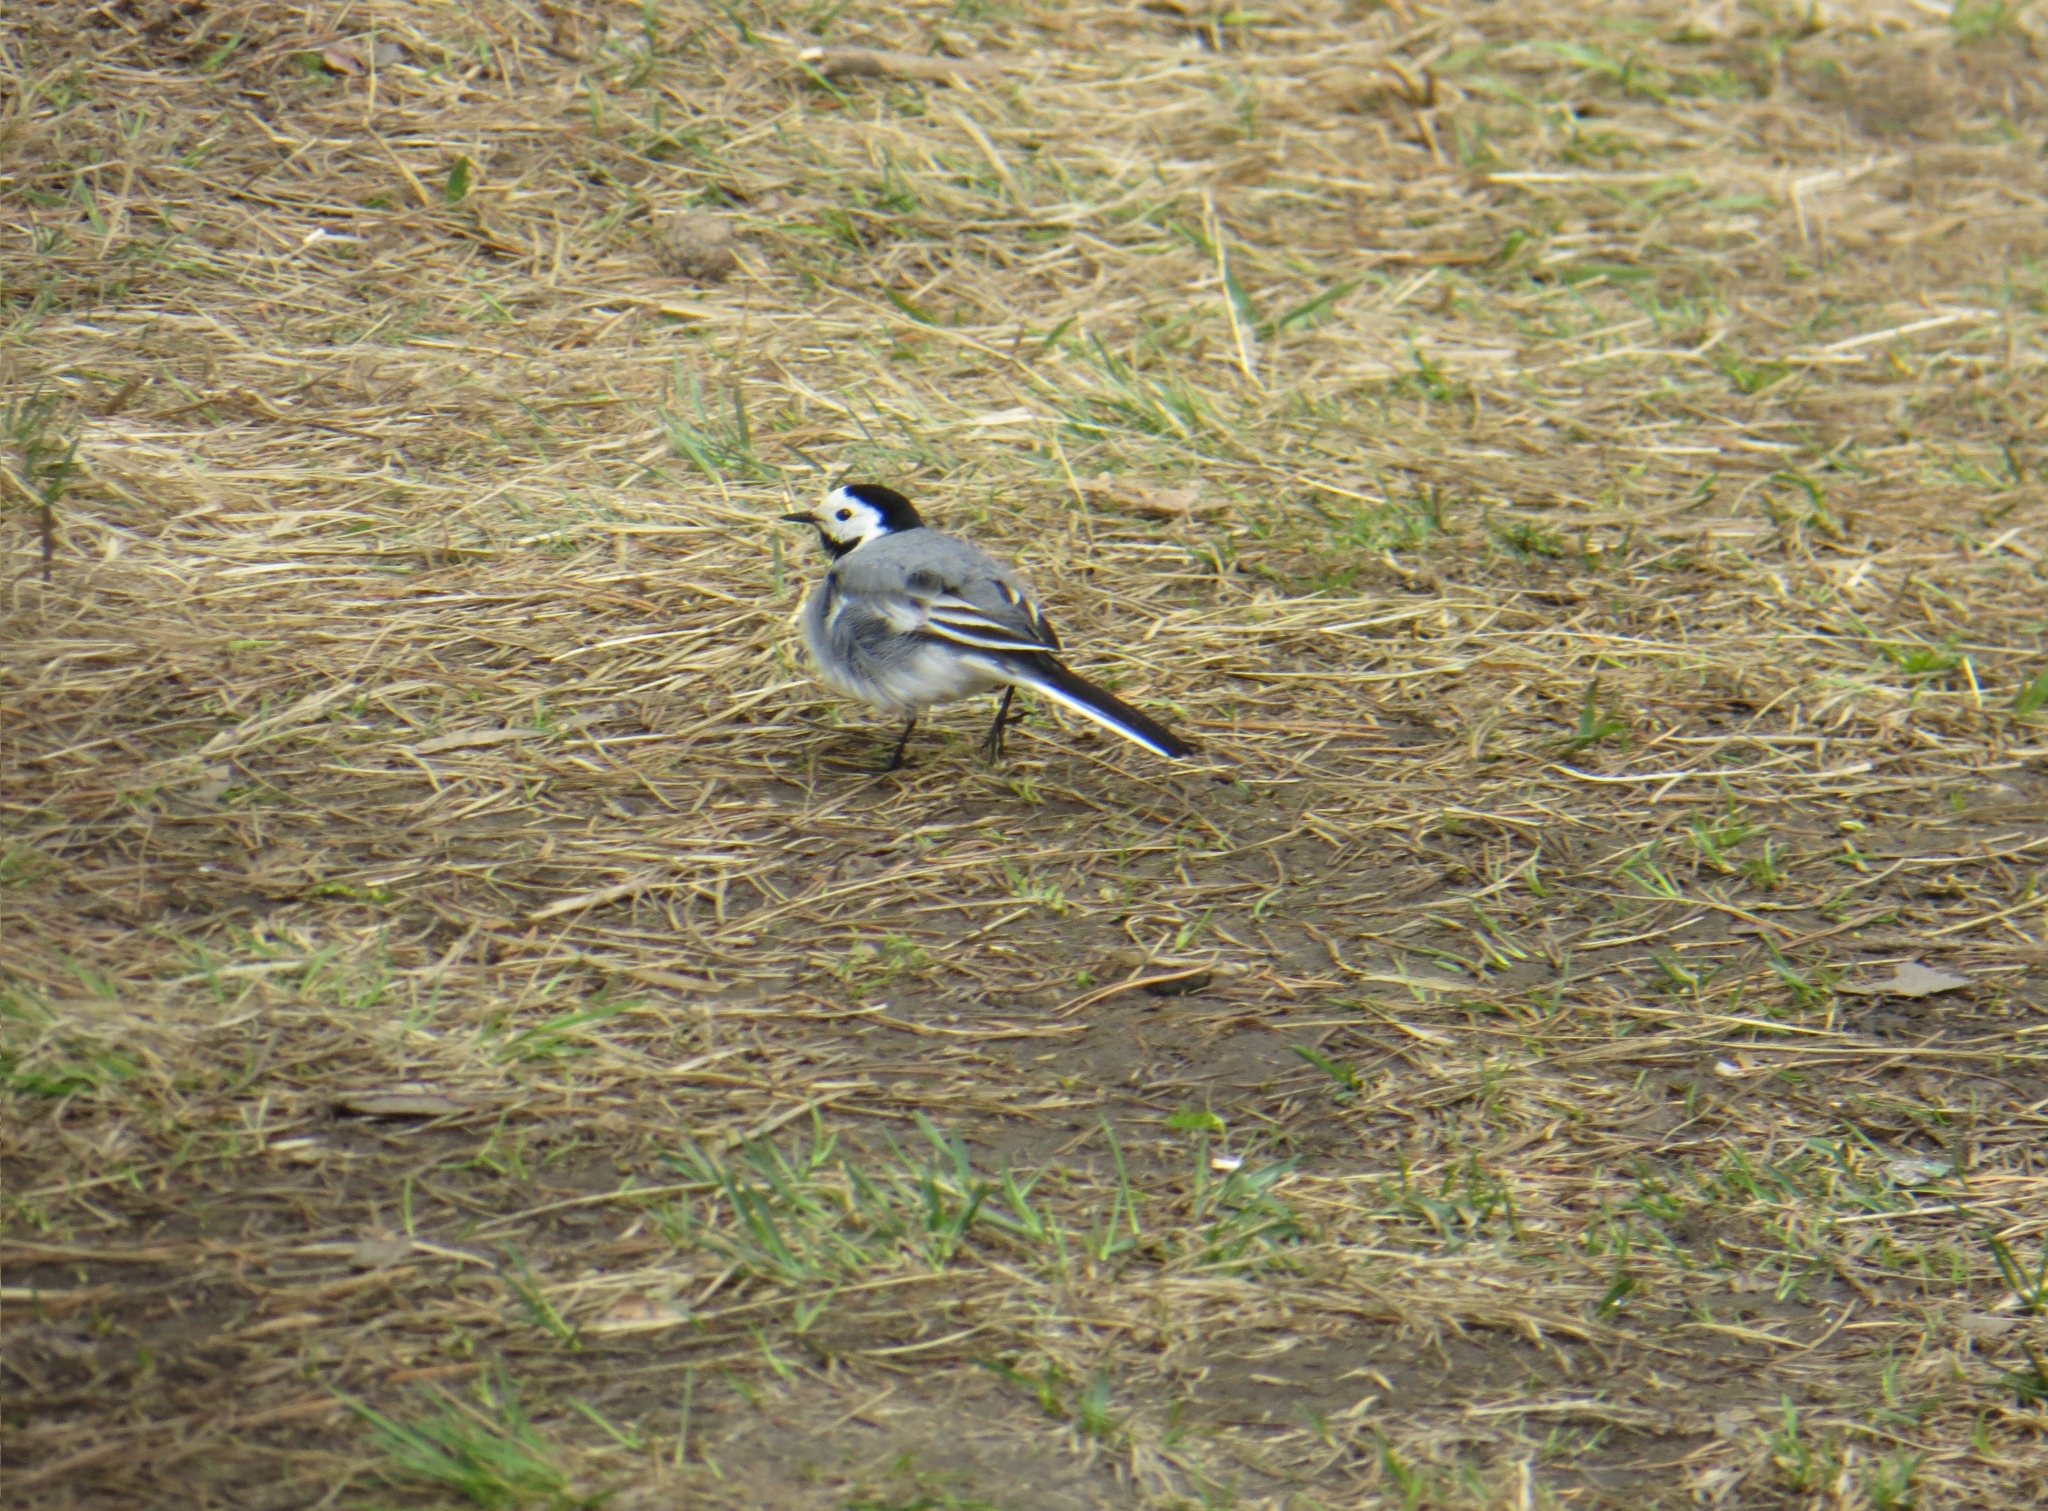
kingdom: Animalia
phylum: Chordata
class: Aves
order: Passeriformes
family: Motacillidae
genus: Motacilla
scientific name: Motacilla alba
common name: White wagtail
